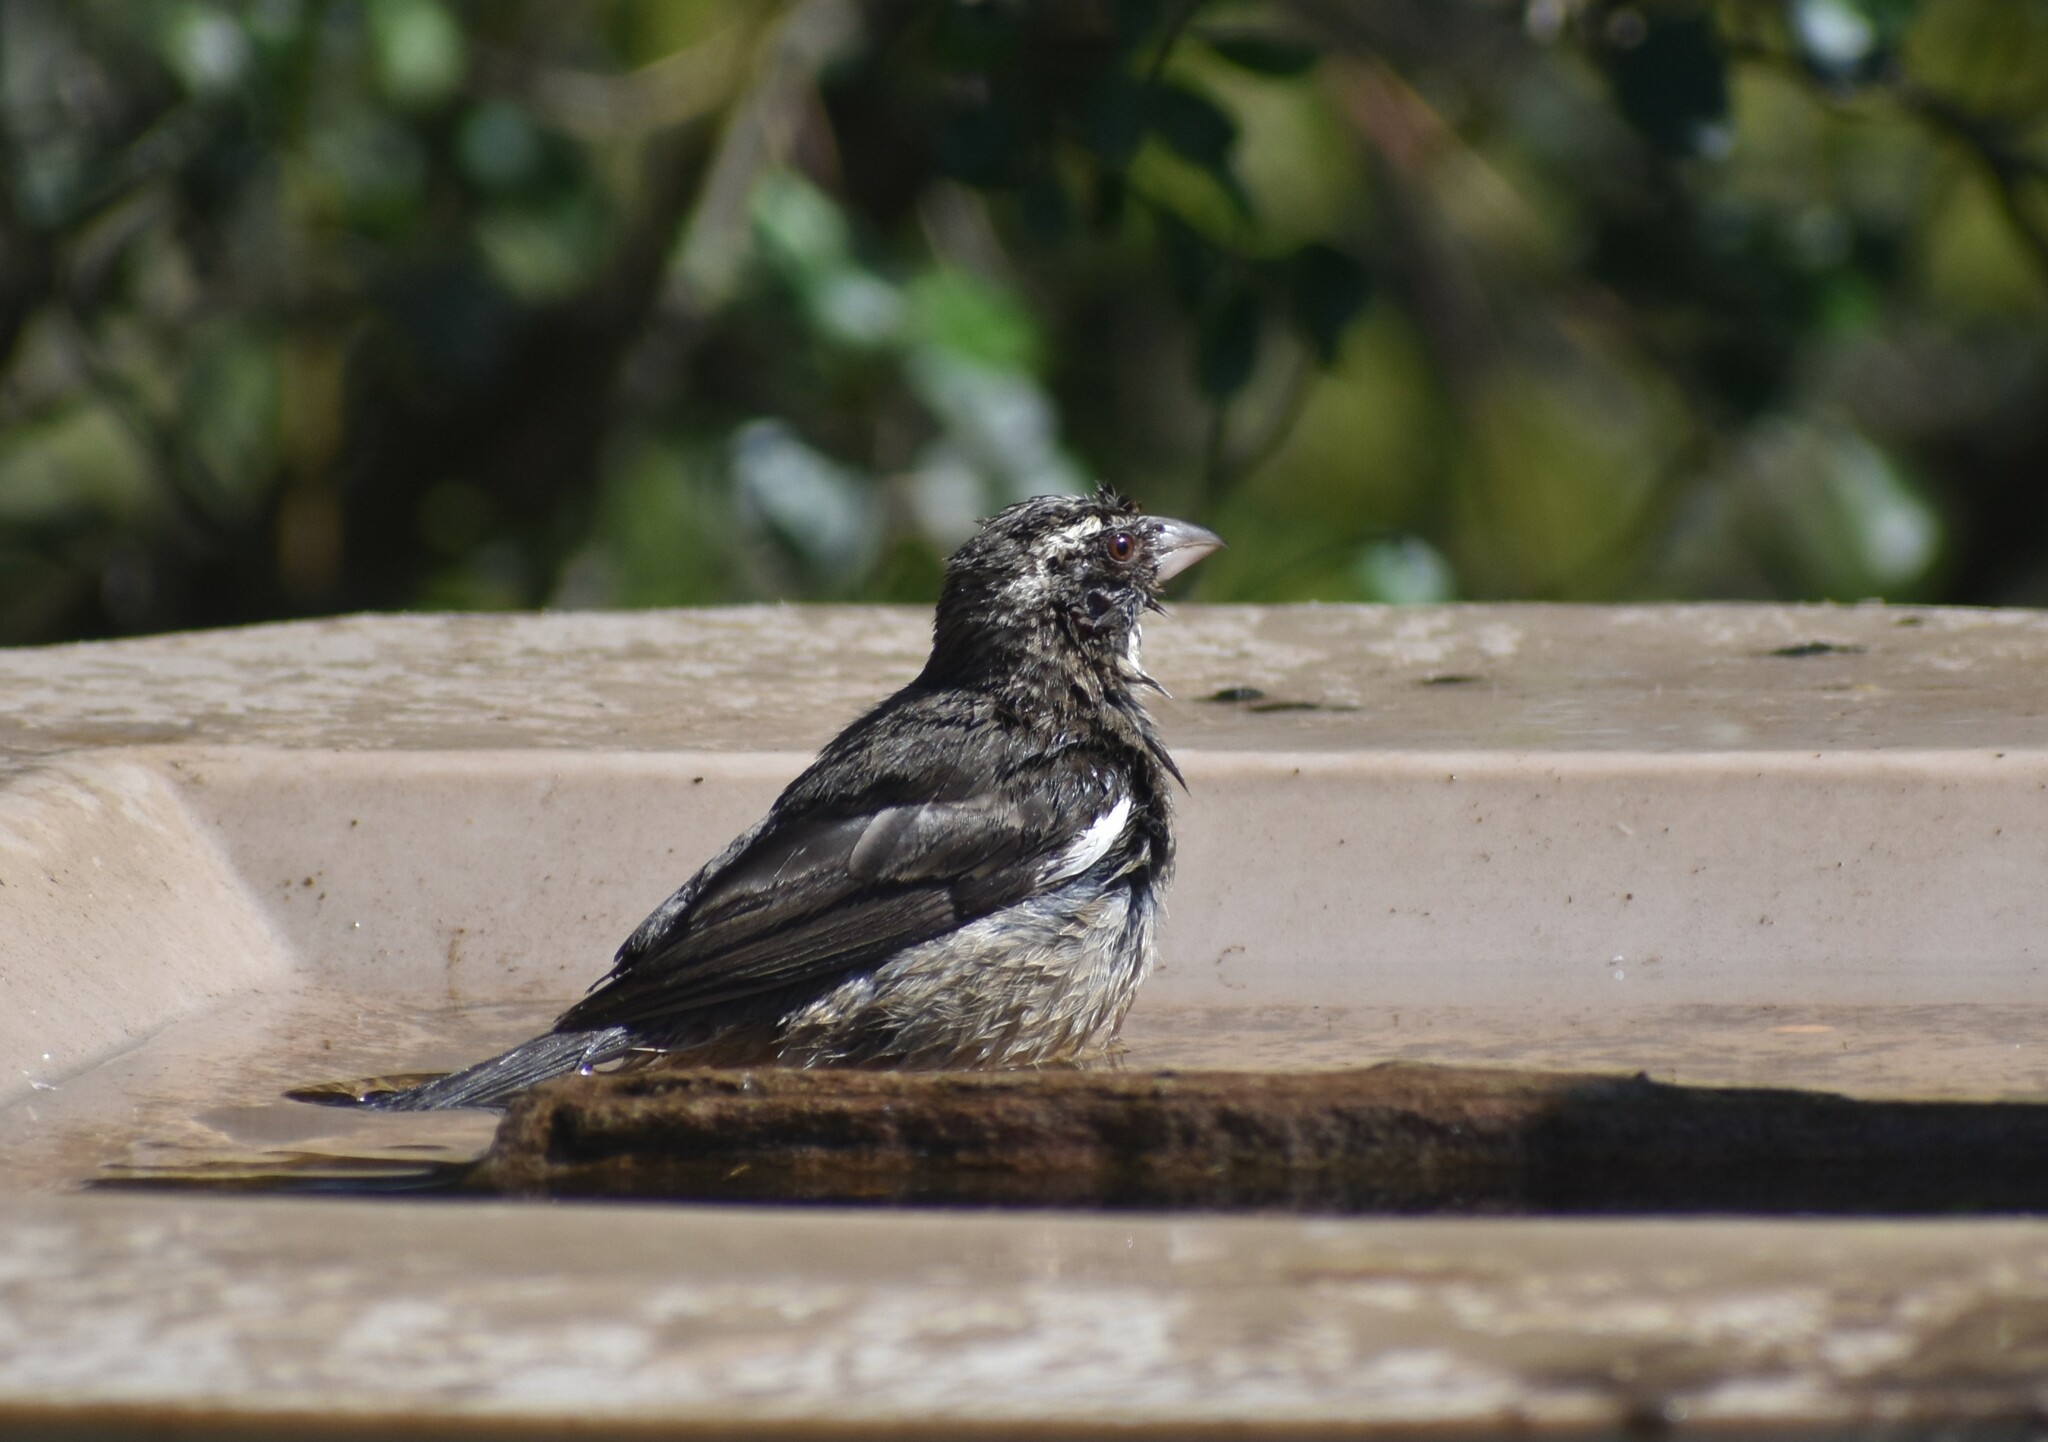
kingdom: Animalia
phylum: Chordata
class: Aves
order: Passeriformes
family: Fringillidae
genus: Crithagra
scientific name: Crithagra gularis
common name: Streaky-headed seedeater
